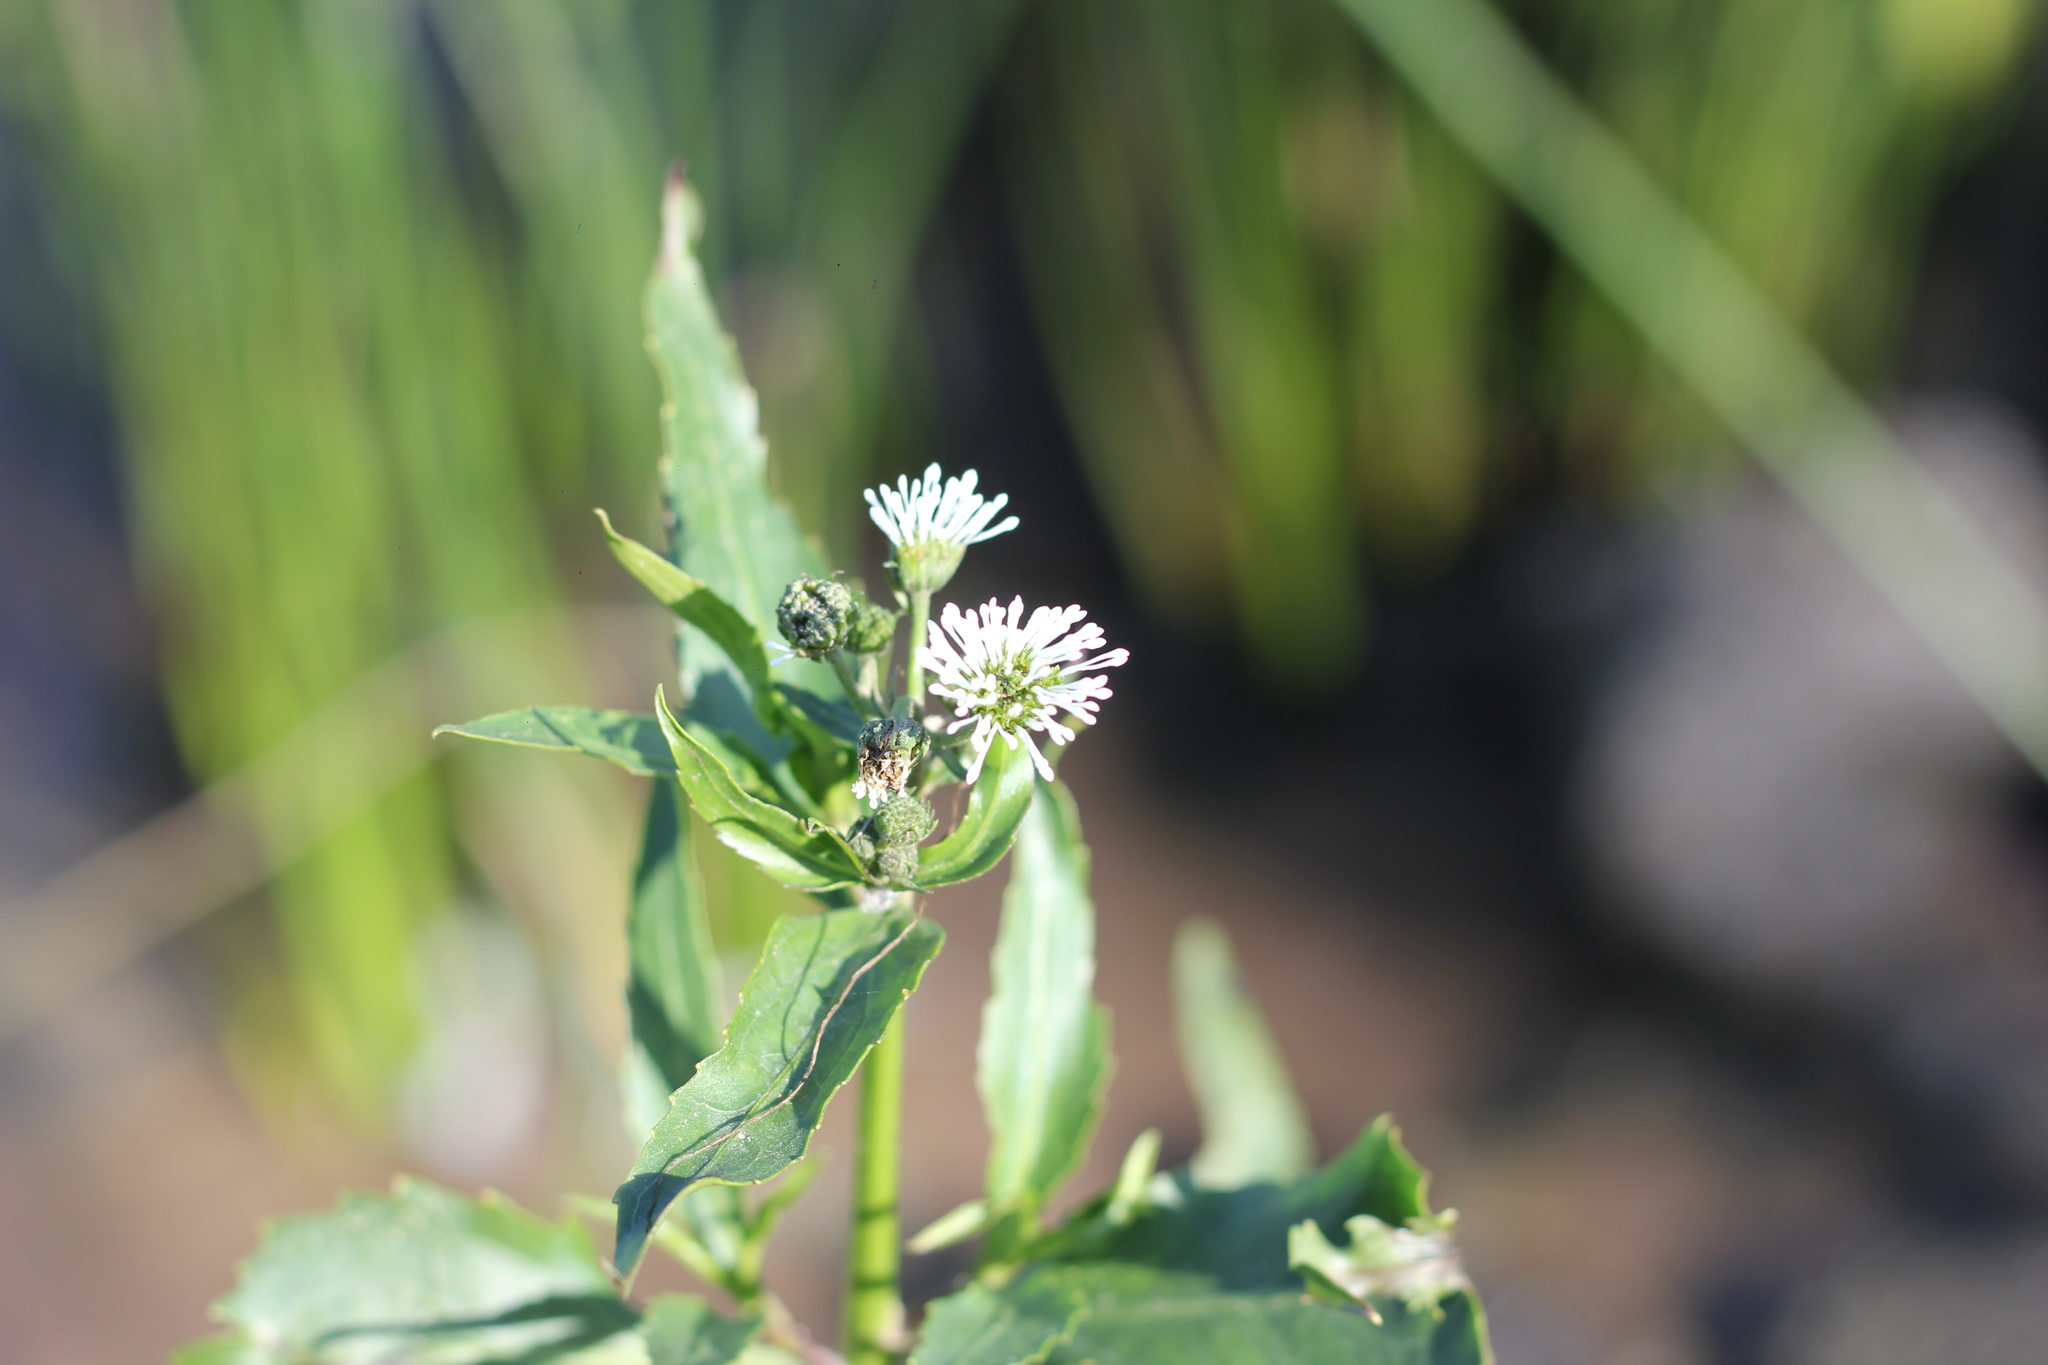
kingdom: Plantae
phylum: Tracheophyta
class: Magnoliopsida
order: Asterales
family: Asteraceae
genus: Gymnocoronis
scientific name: Gymnocoronis spilanthoides
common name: Senegal teaplant
